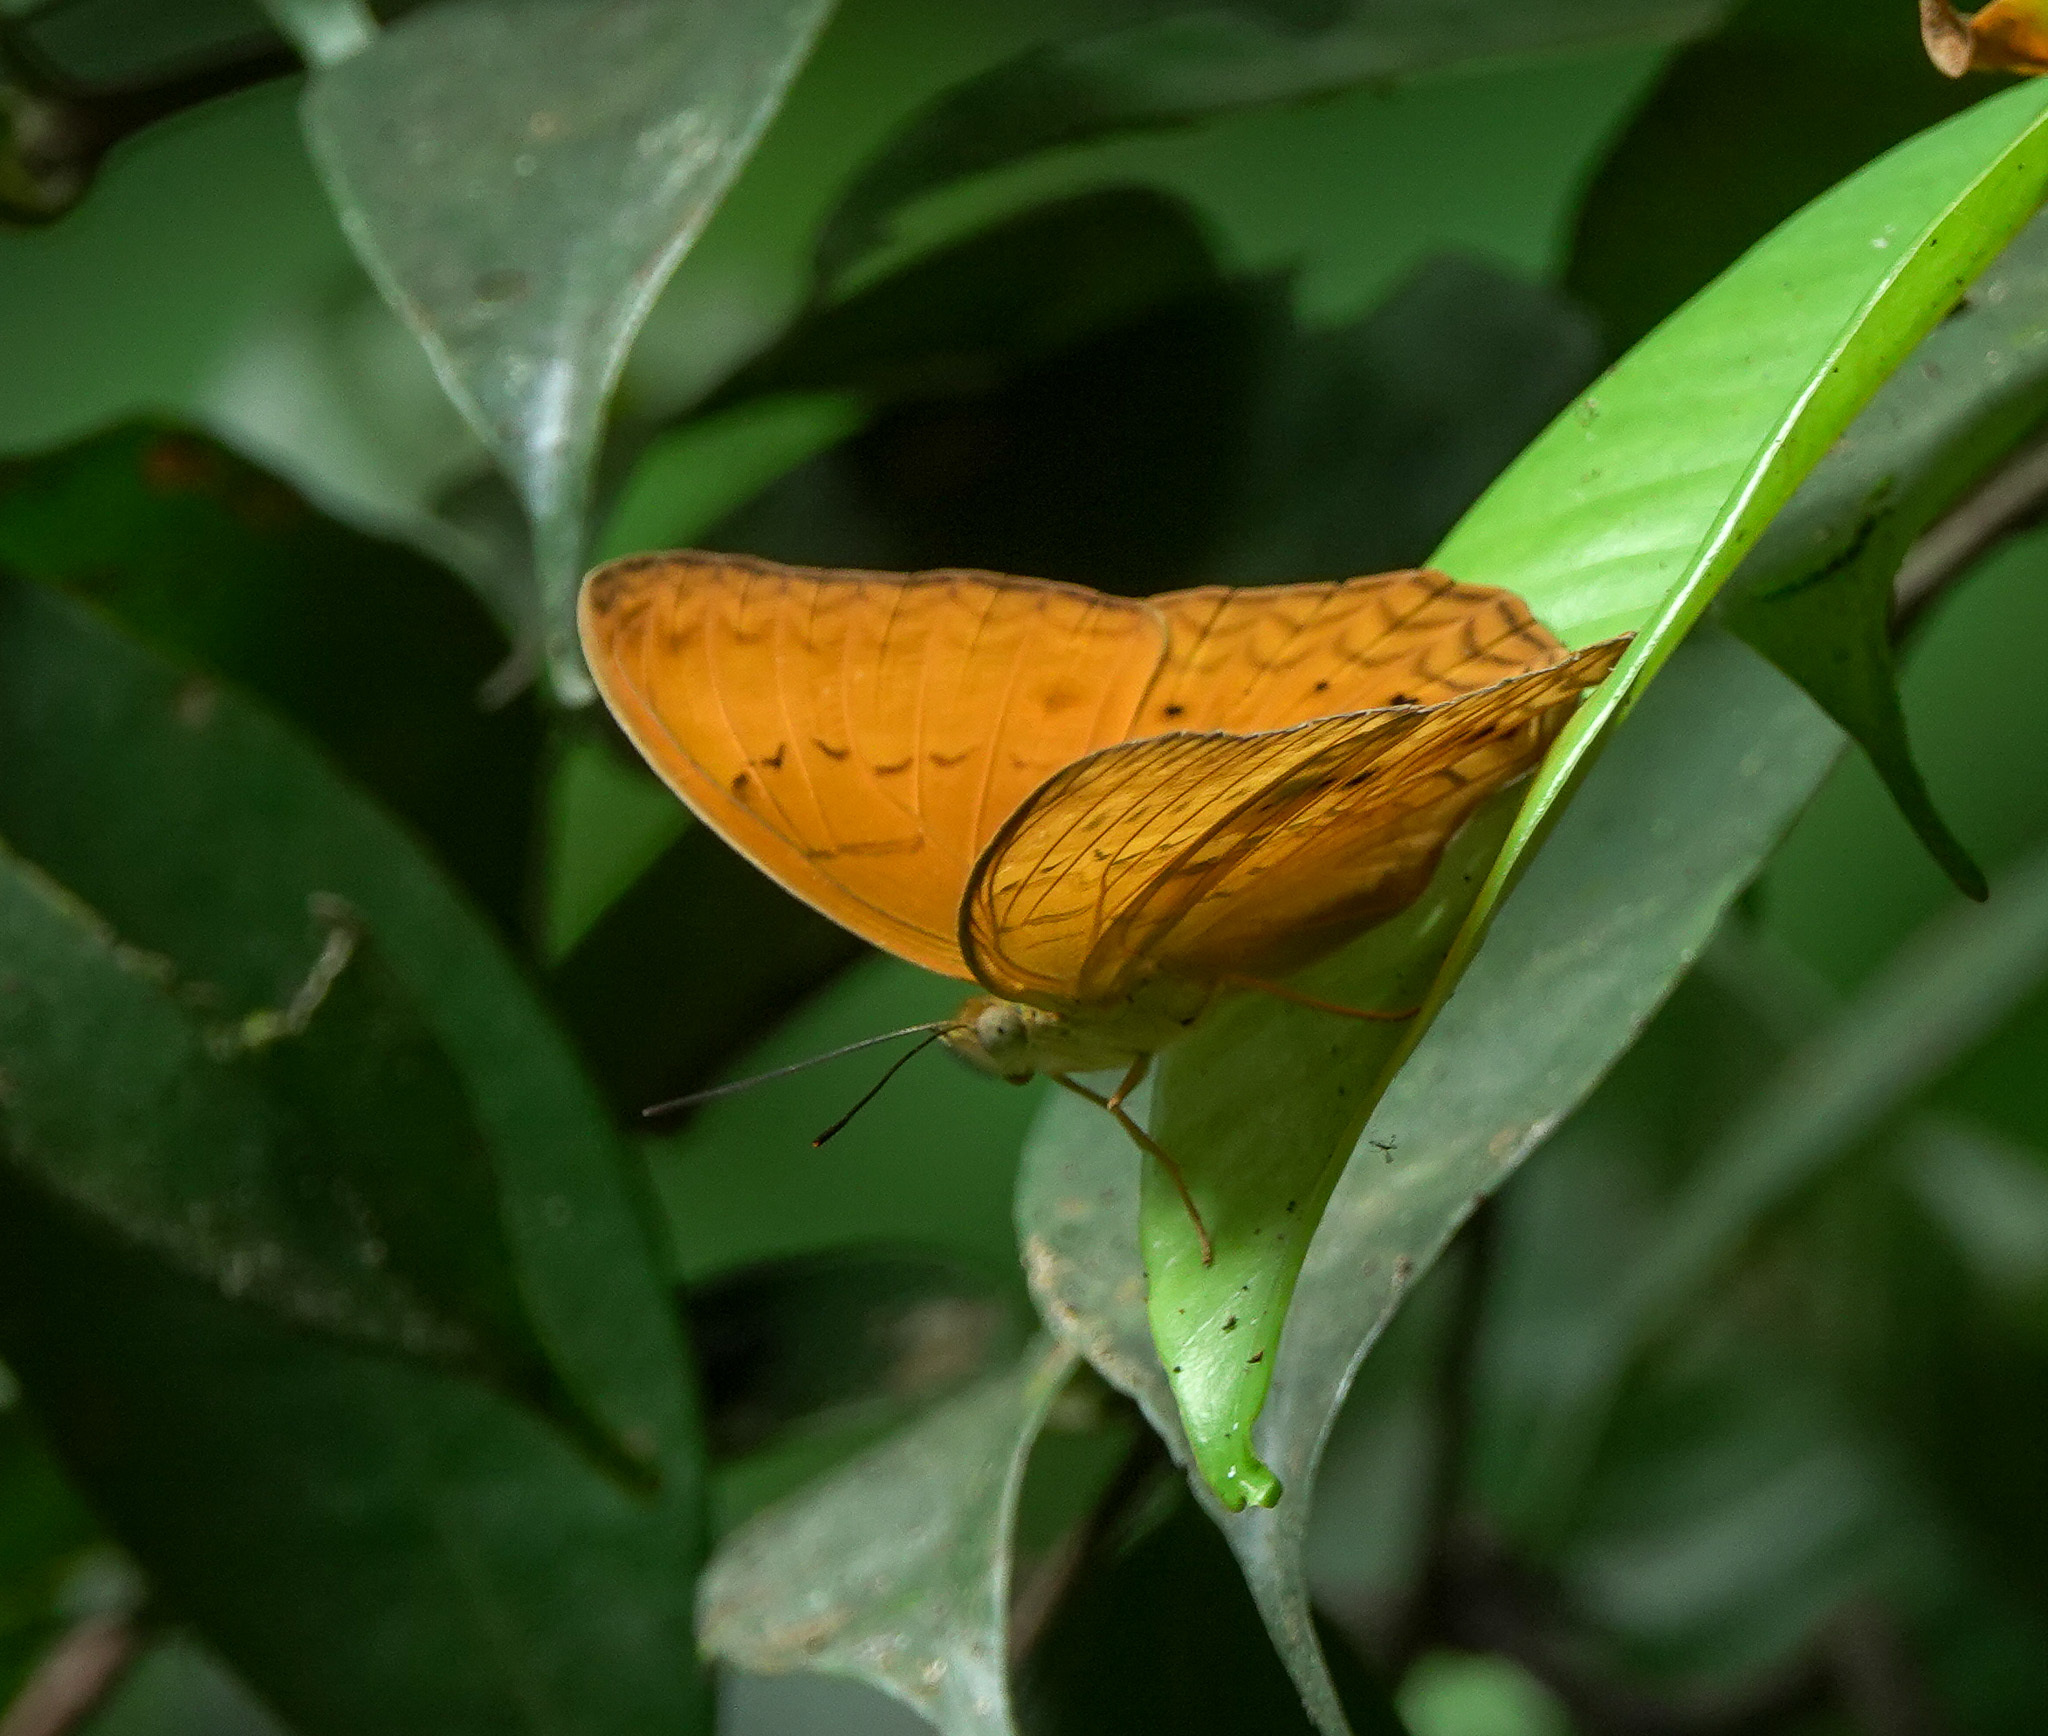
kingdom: Animalia
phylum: Arthropoda
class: Insecta
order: Lepidoptera
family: Nymphalidae
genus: Cirrochroa
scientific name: Cirrochroa tyche
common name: Common yeoman
